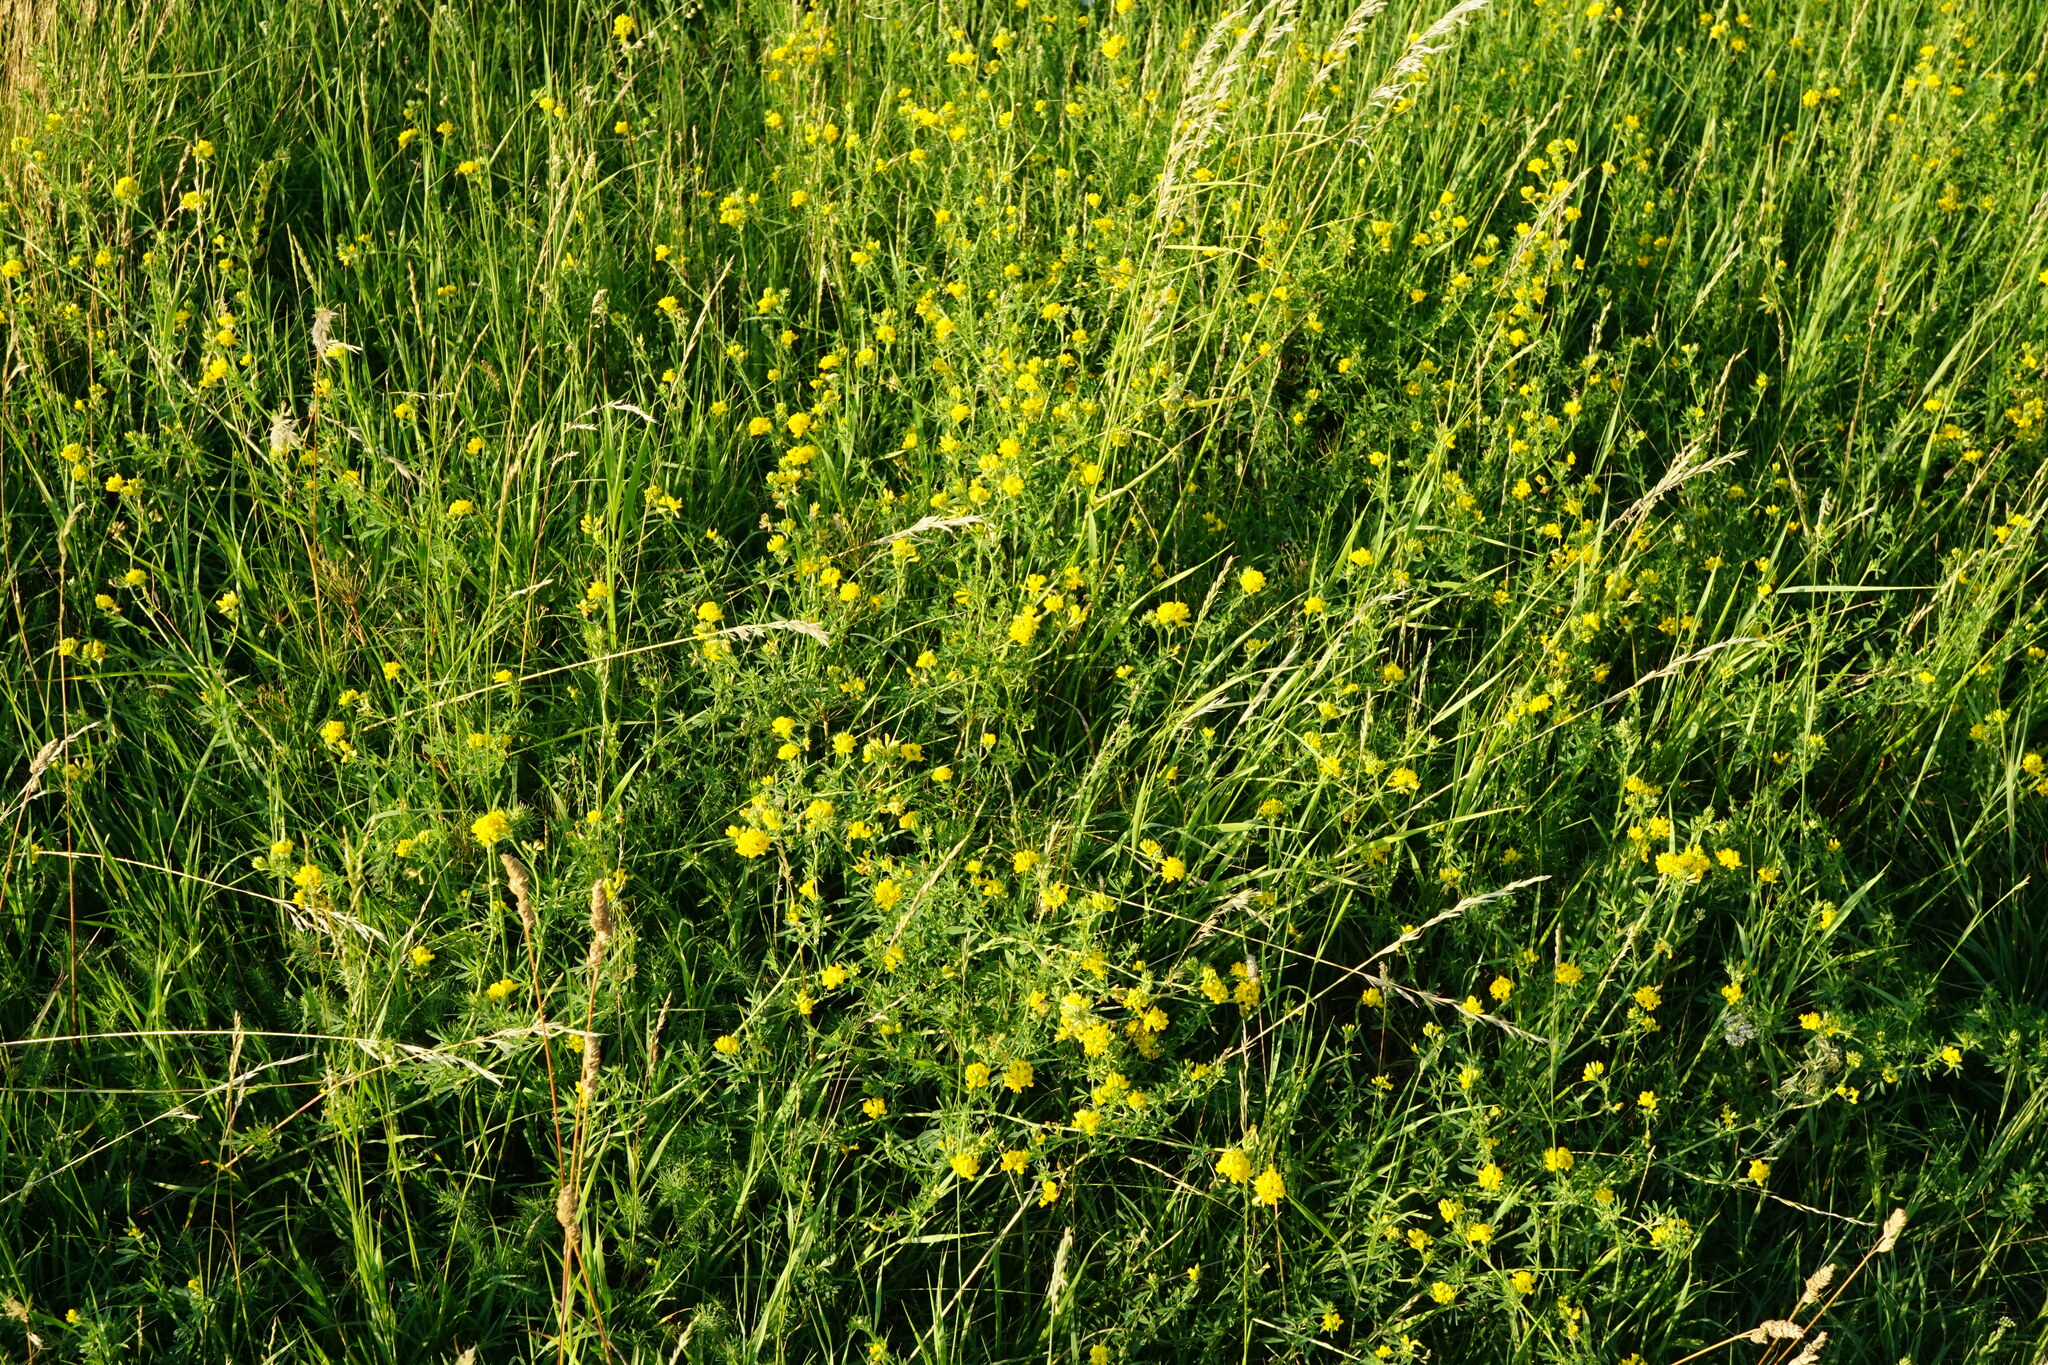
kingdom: Plantae
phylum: Tracheophyta
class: Magnoliopsida
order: Fabales
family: Fabaceae
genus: Medicago
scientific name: Medicago falcata
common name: Sickle medick
